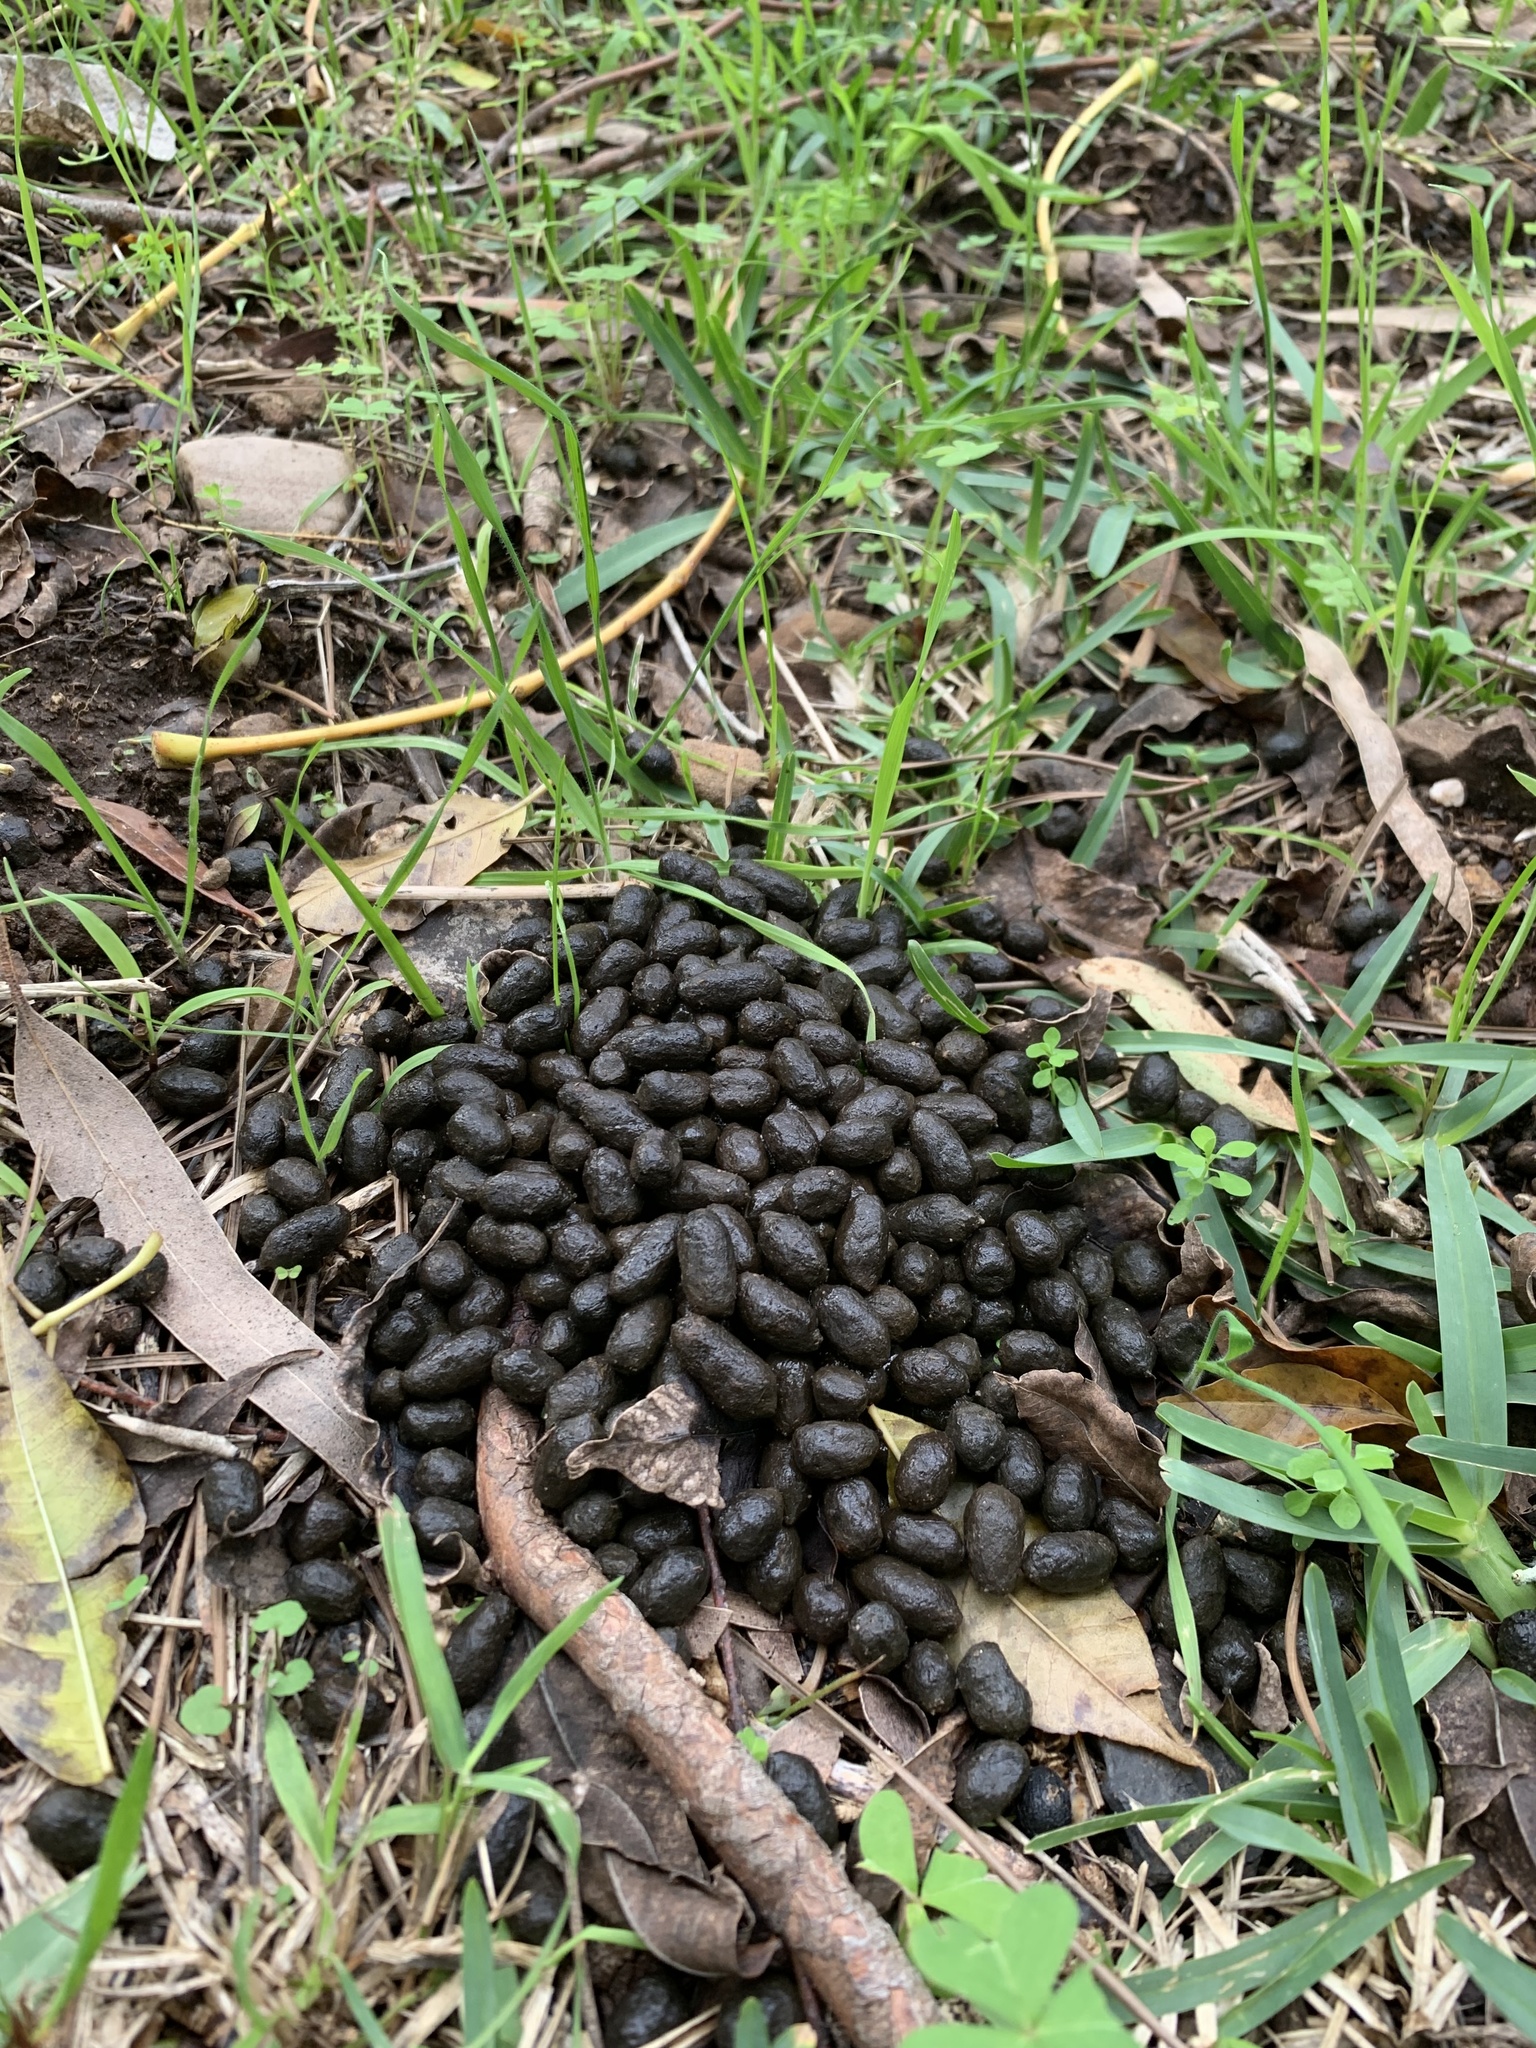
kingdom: Animalia
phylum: Chordata
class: Mammalia
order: Artiodactyla
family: Bovidae
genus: Sylvicapra
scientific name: Sylvicapra grimmia
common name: Bush duiker
